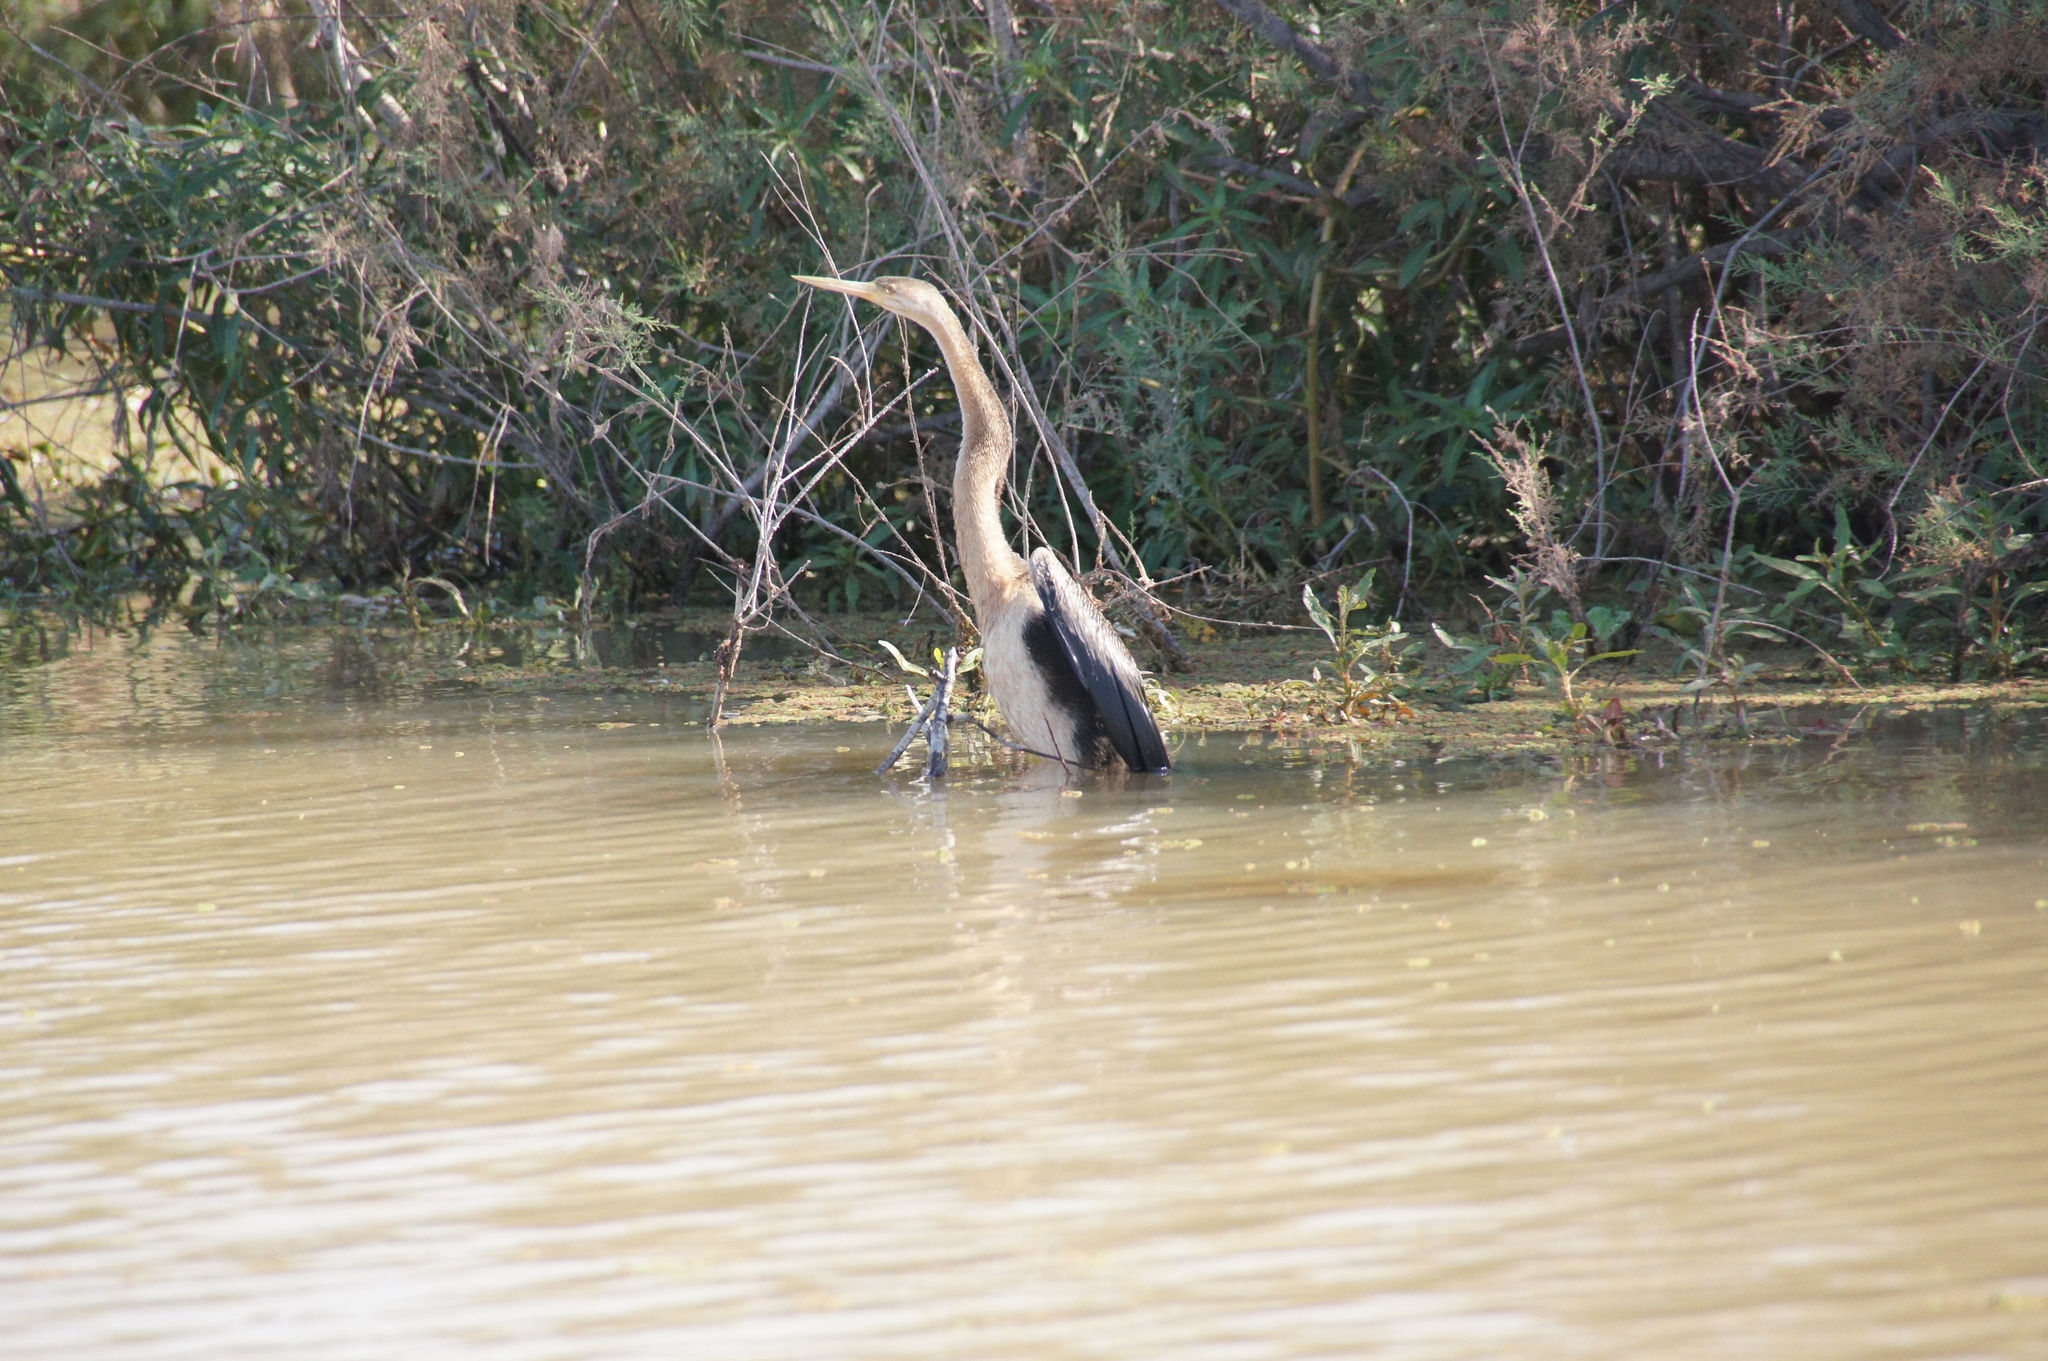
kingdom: Animalia
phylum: Chordata
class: Aves
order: Suliformes
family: Anhingidae
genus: Anhinga
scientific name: Anhinga rufa
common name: African darter
